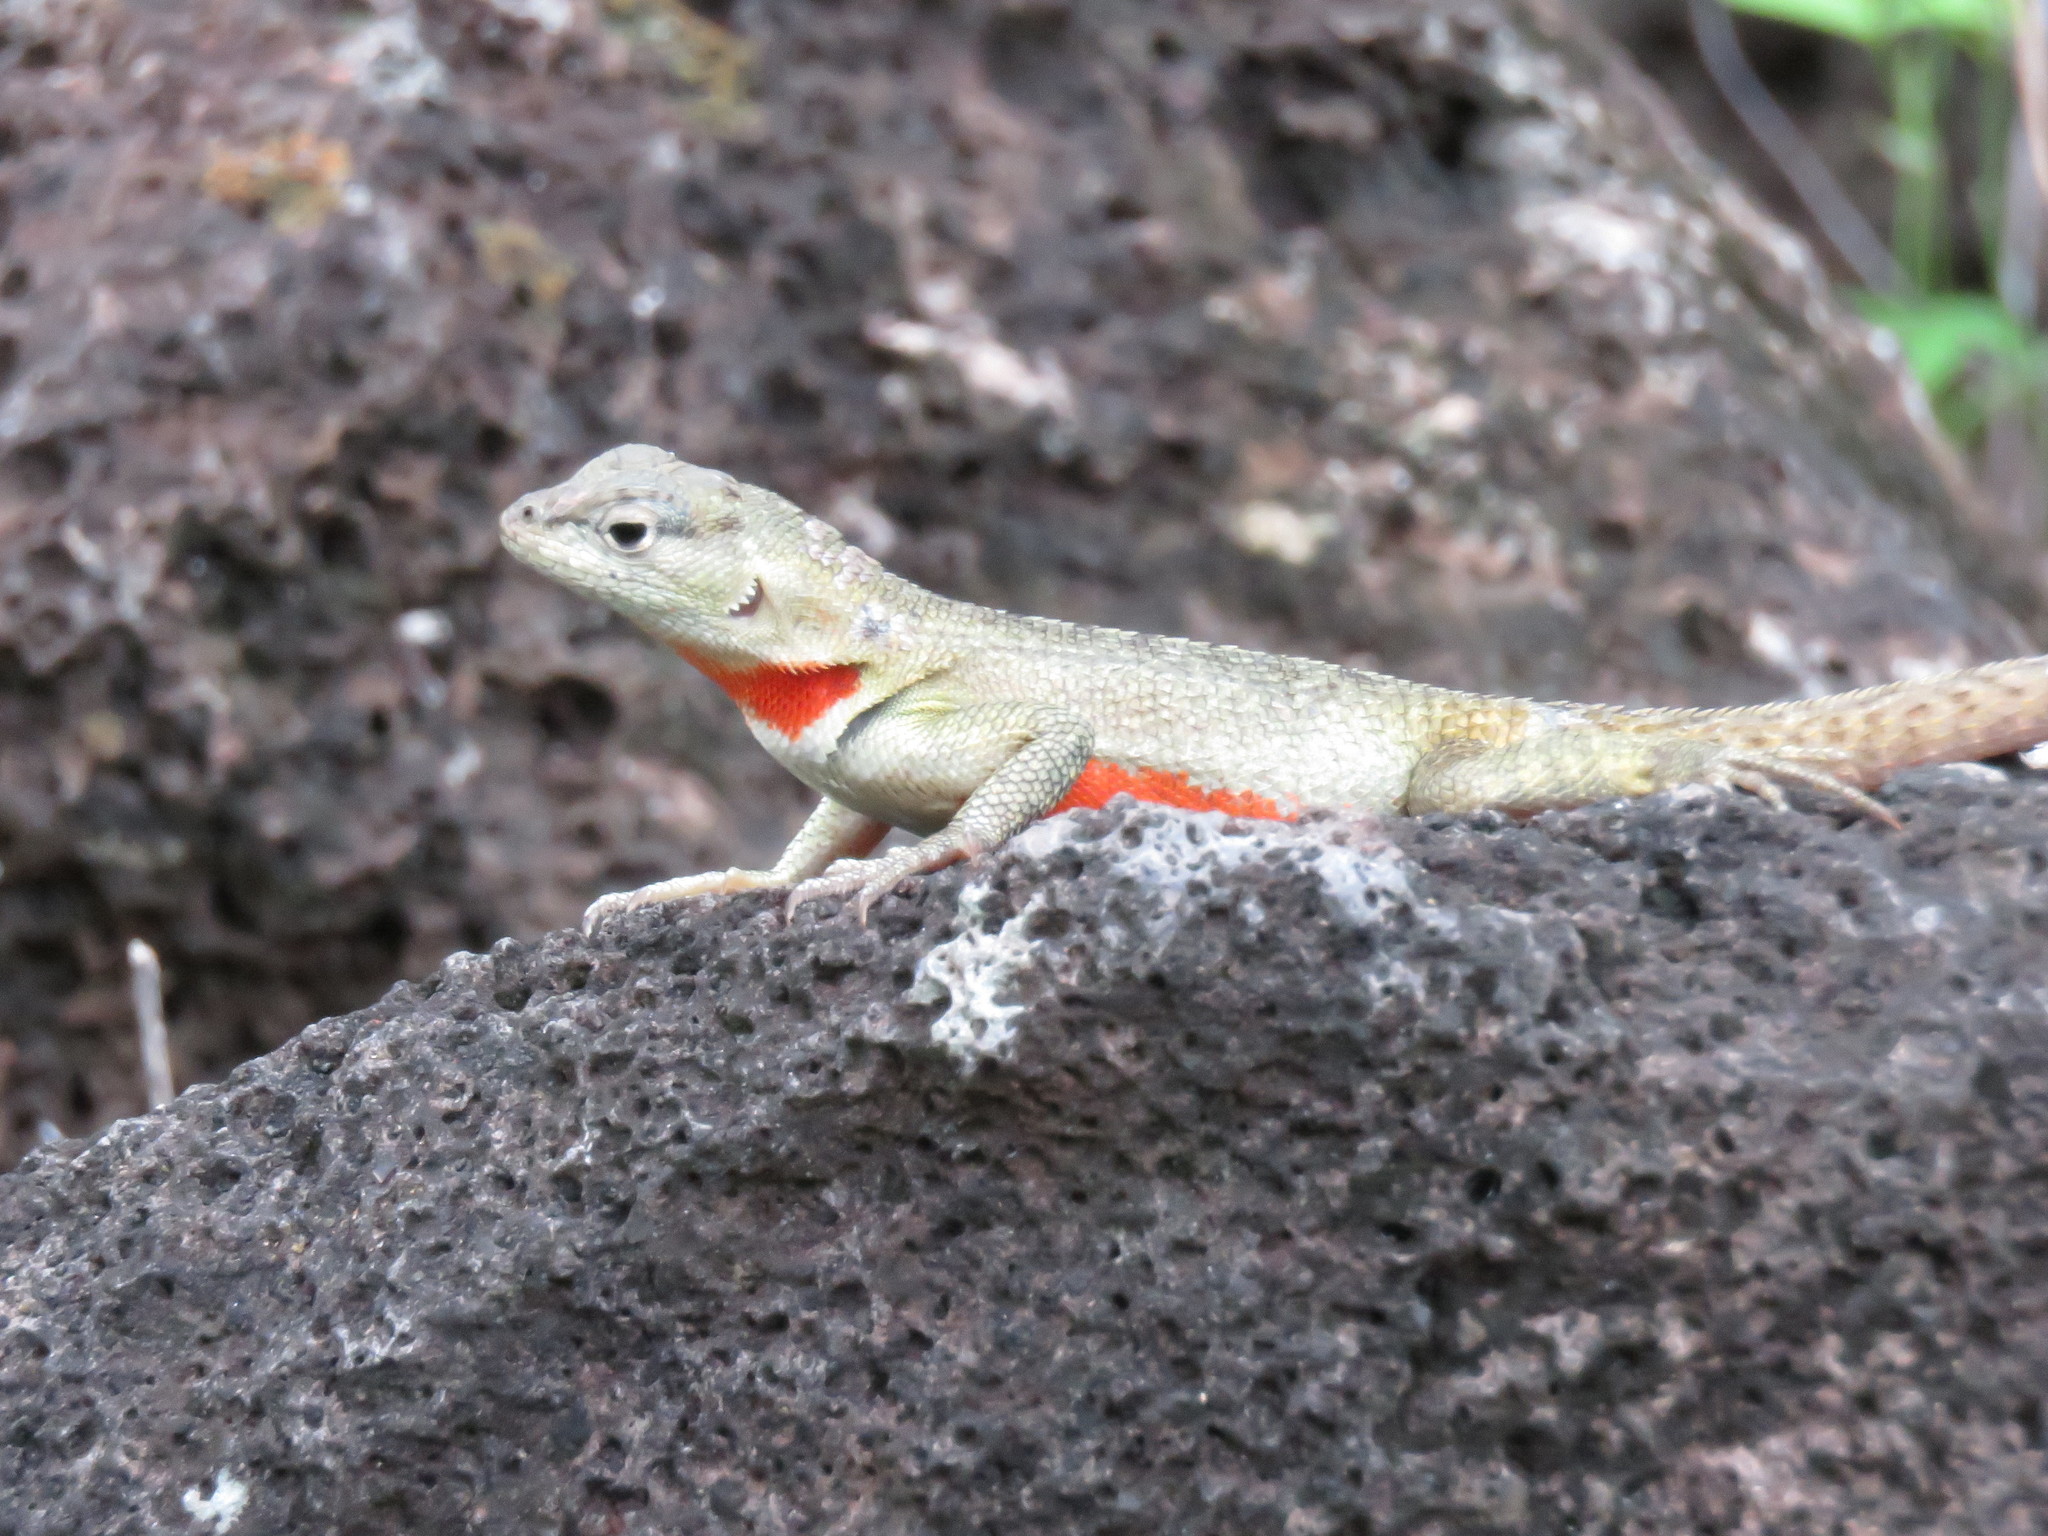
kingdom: Animalia
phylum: Chordata
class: Squamata
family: Tropiduridae
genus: Microlophus
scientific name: Microlophus bivittatus
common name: San cristobal lava lizard
